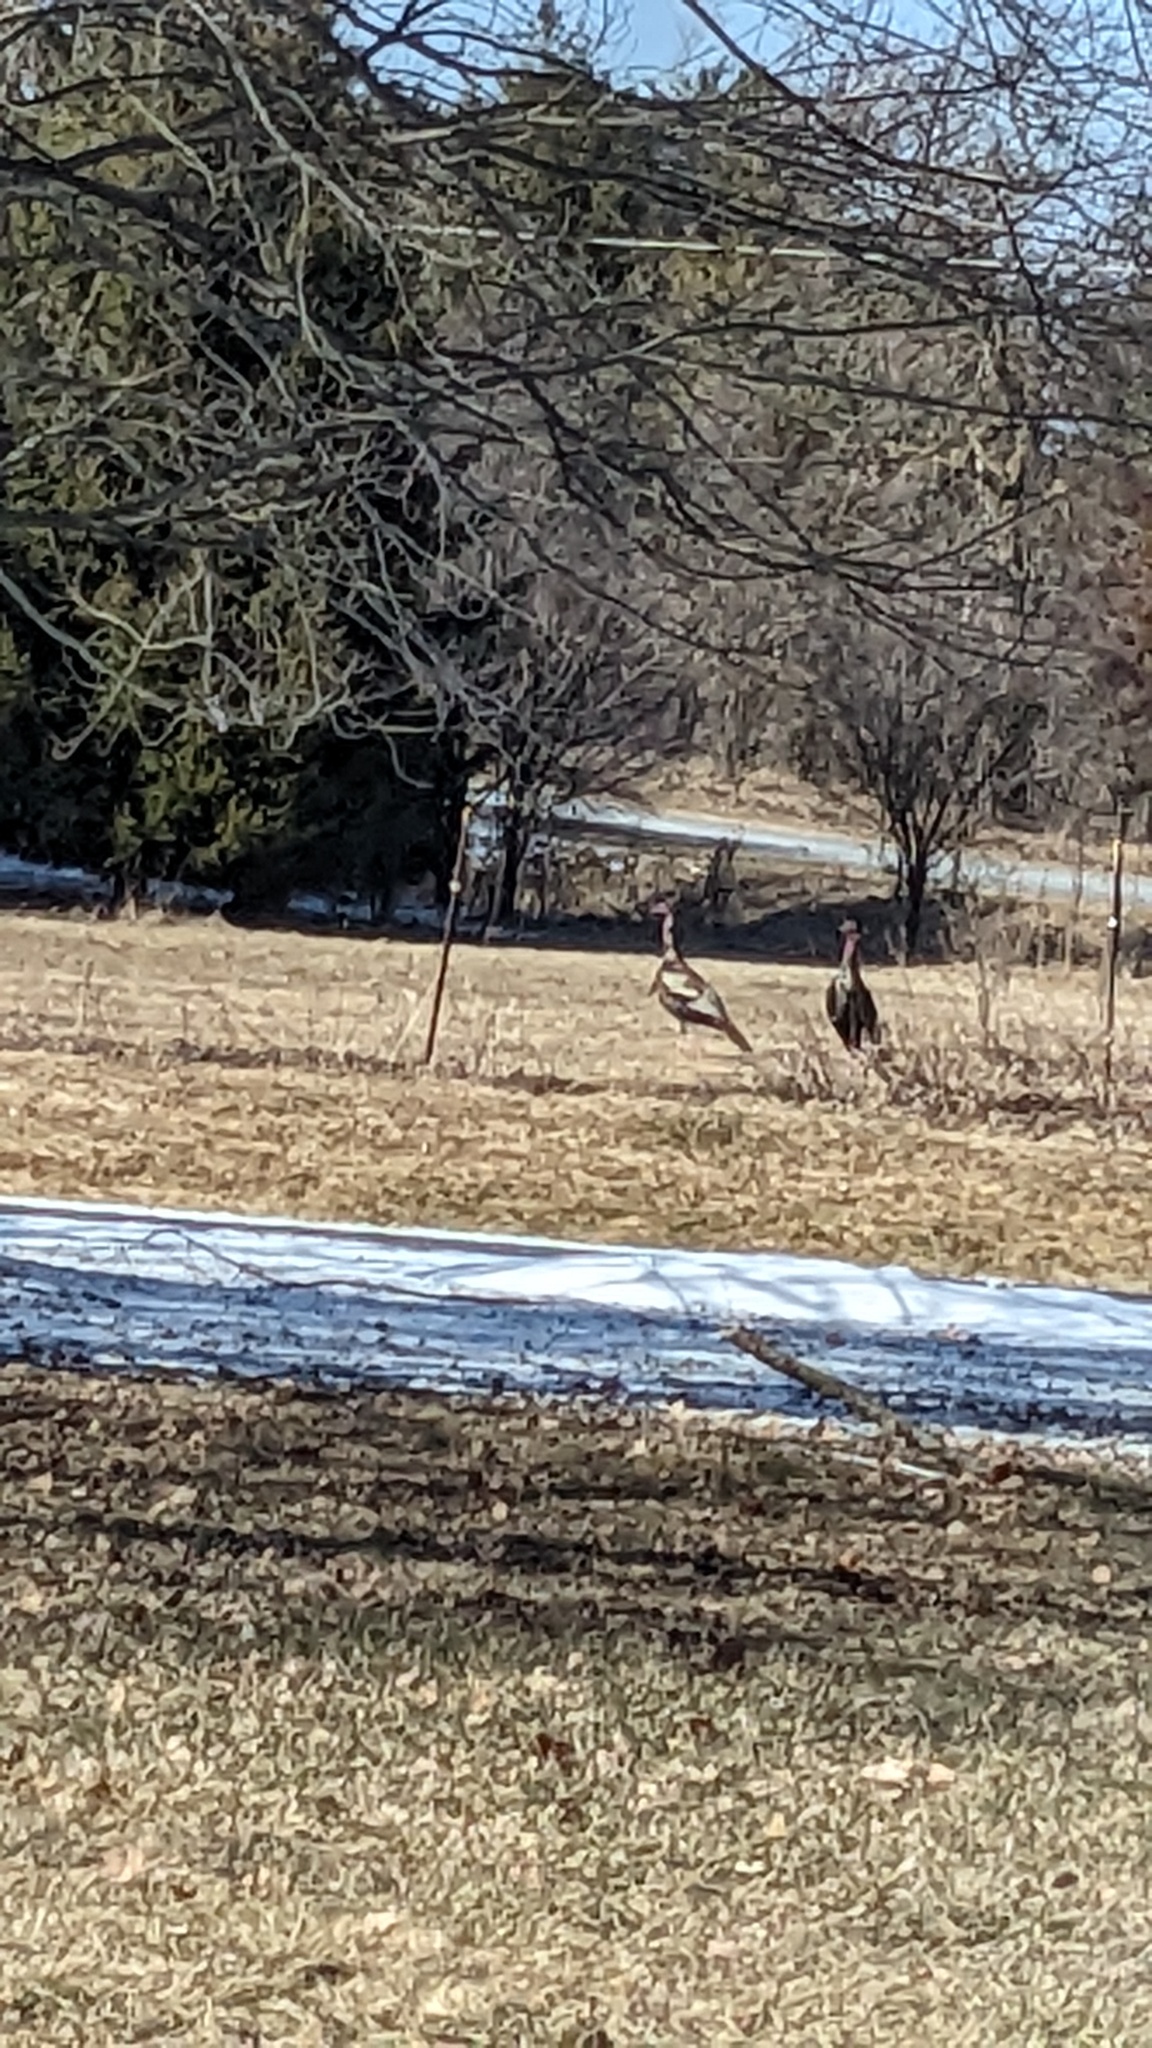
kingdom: Animalia
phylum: Chordata
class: Aves
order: Galliformes
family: Phasianidae
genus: Meleagris
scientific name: Meleagris gallopavo
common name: Wild turkey
